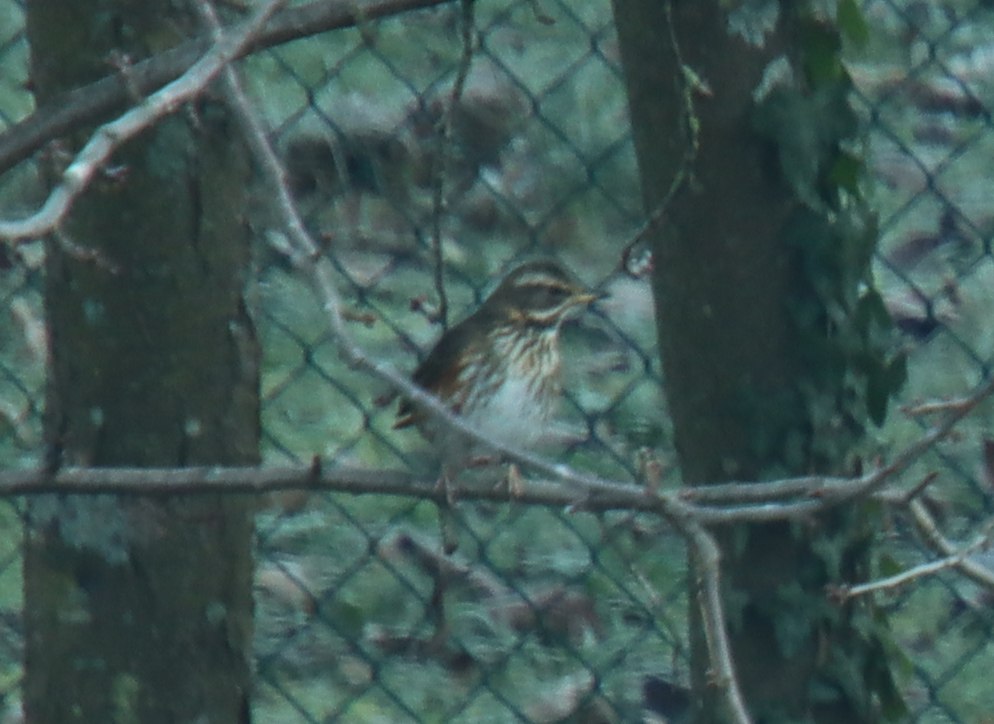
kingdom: Animalia
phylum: Chordata
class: Aves
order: Passeriformes
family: Turdidae
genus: Turdus
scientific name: Turdus iliacus
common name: Redwing
